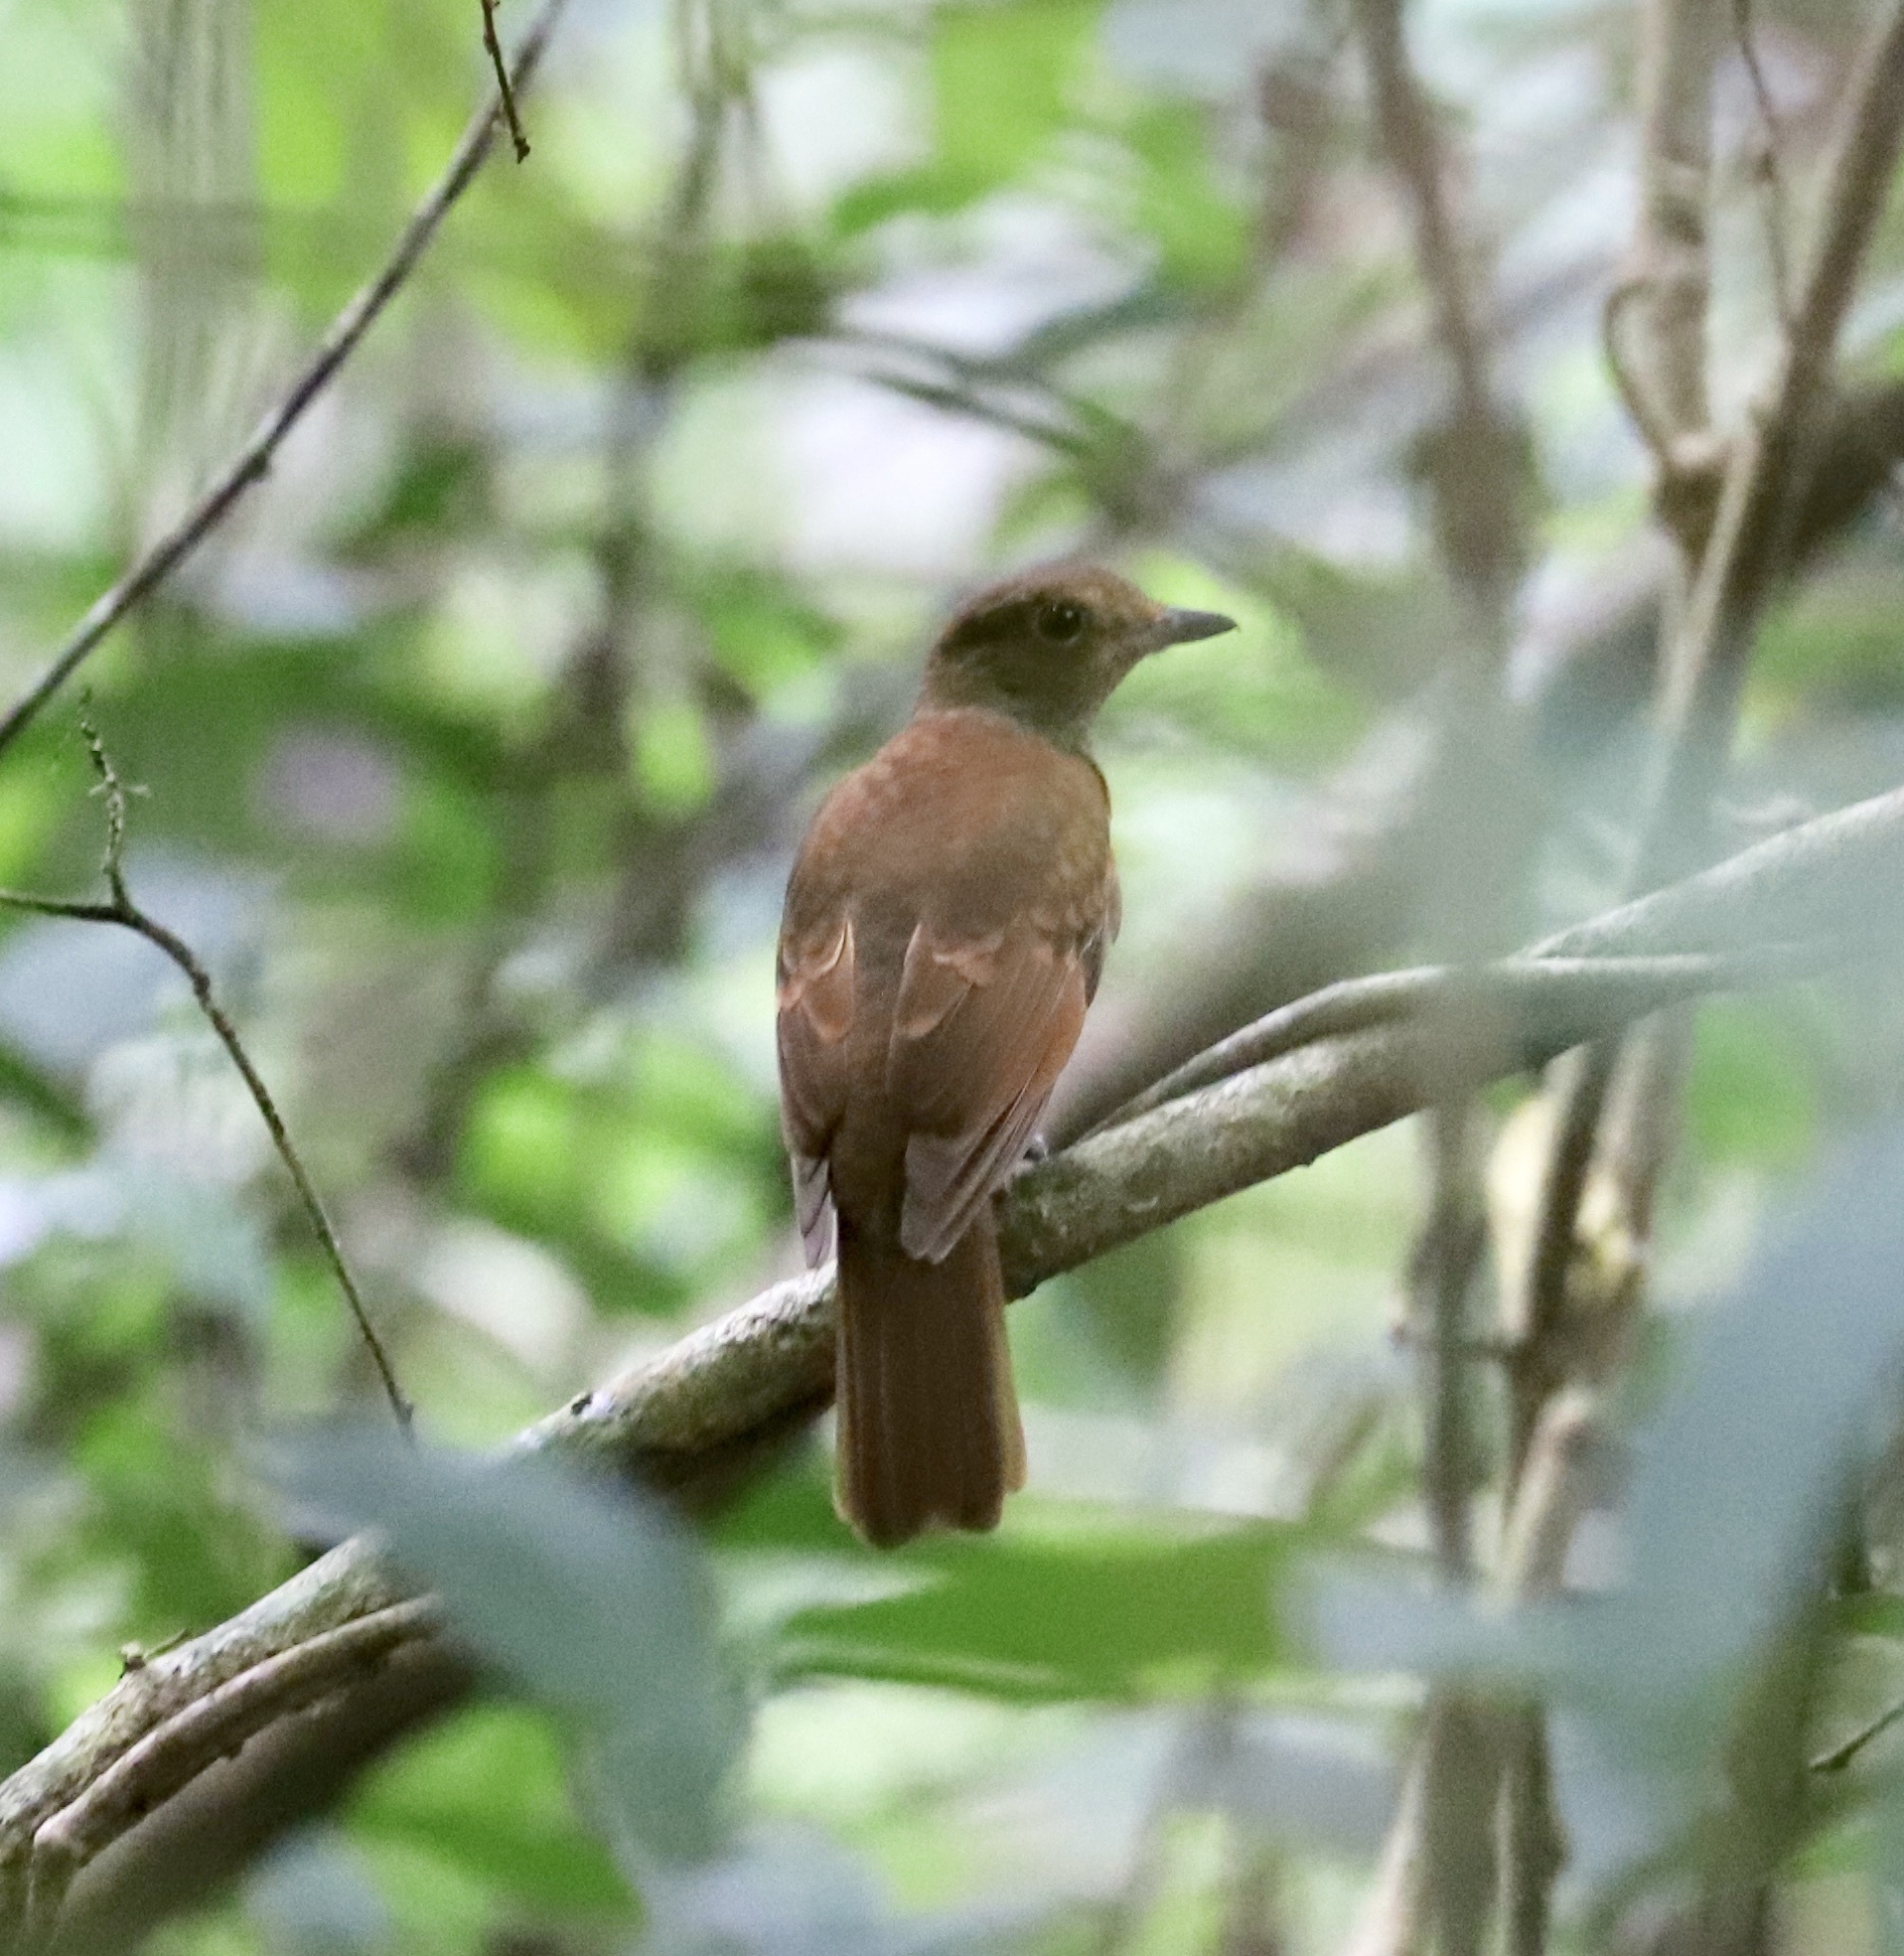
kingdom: Animalia
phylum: Chordata
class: Aves
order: Passeriformes
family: Cotingidae
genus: Laniocera
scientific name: Laniocera rufescens
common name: Speckled mourner
